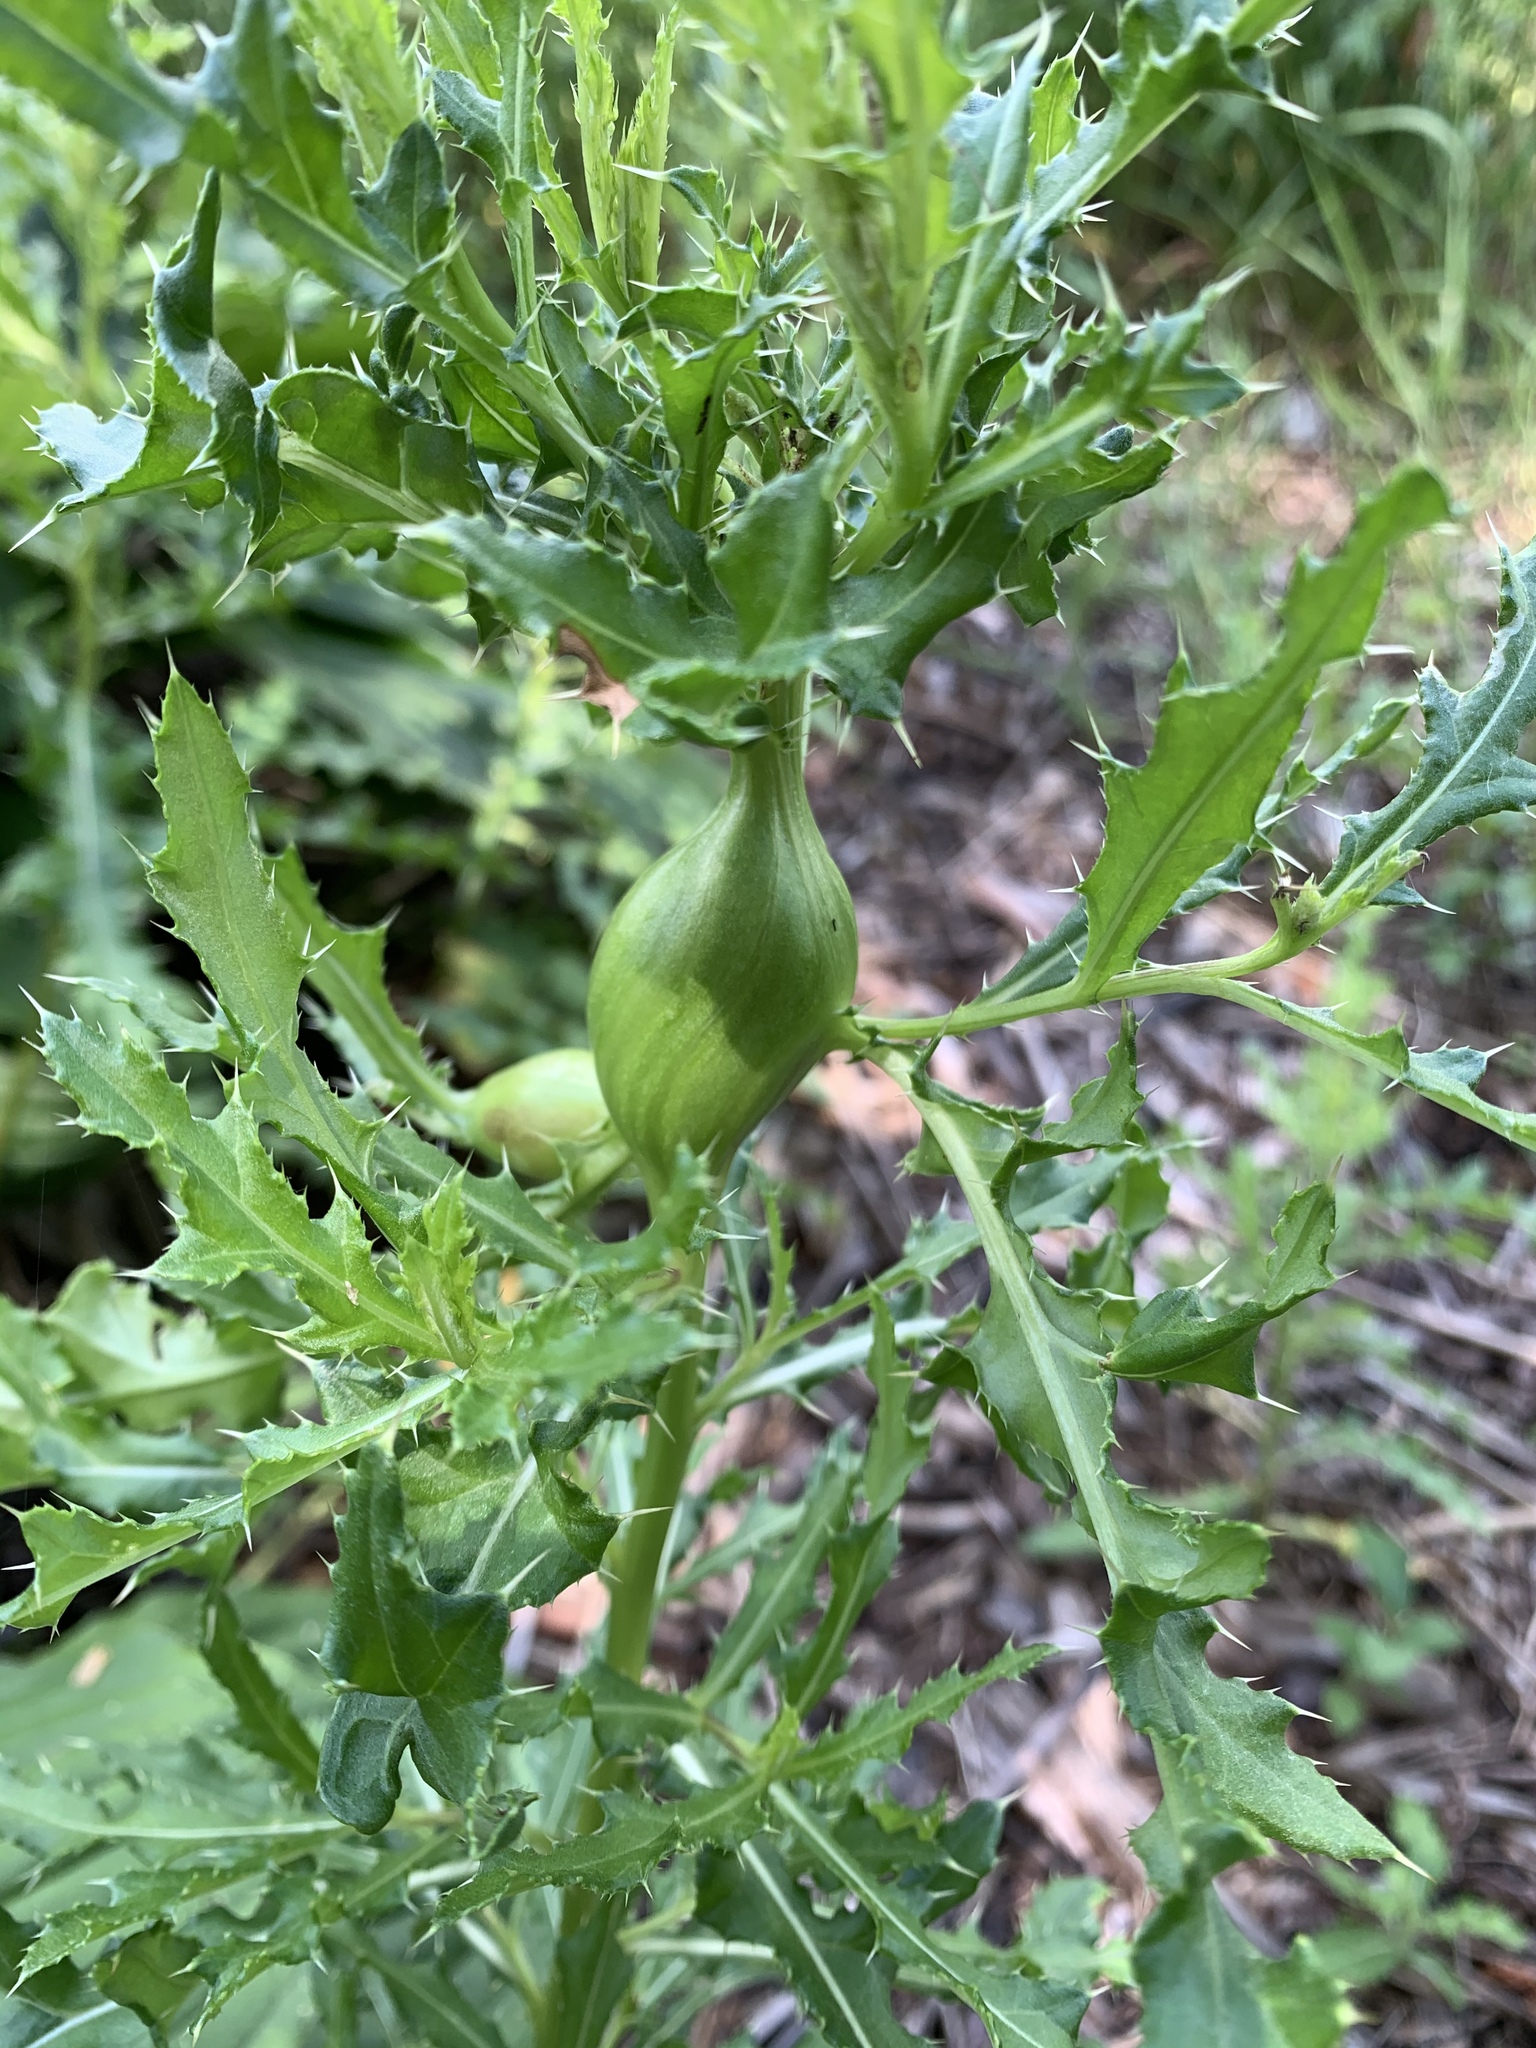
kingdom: Animalia
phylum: Arthropoda
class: Insecta
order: Diptera
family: Tephritidae
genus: Urophora
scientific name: Urophora cardui
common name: Fruit fly
